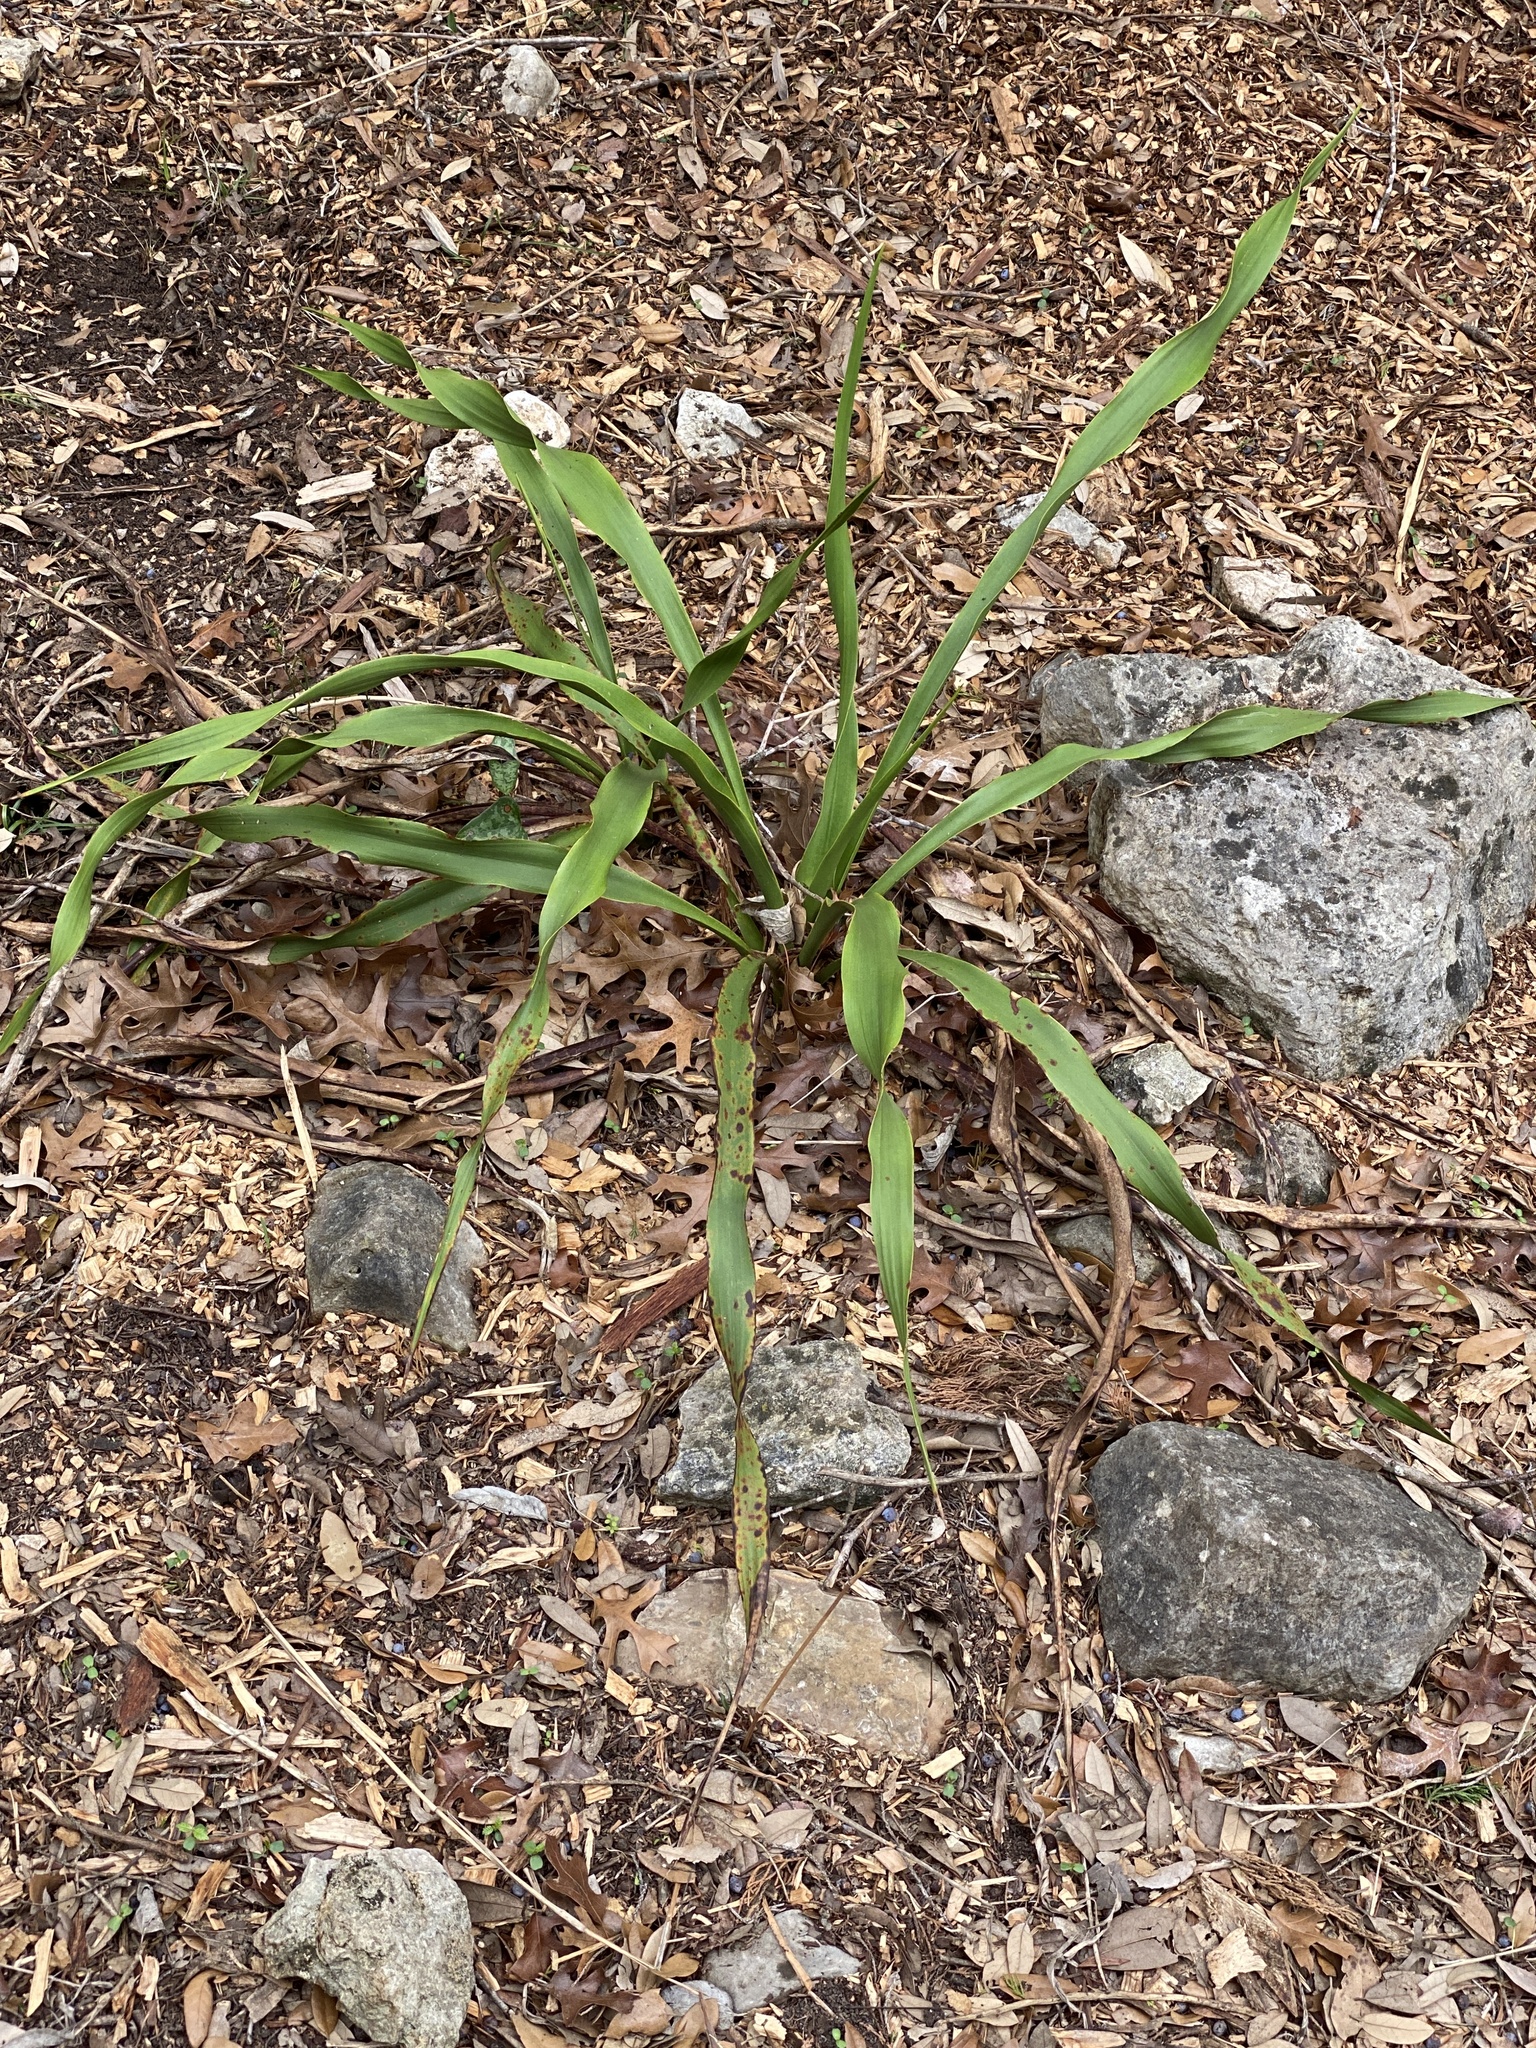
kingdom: Plantae
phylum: Tracheophyta
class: Liliopsida
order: Asparagales
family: Asparagaceae
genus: Yucca
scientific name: Yucca rupicola
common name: Twisted-leaf spanish-dagger
